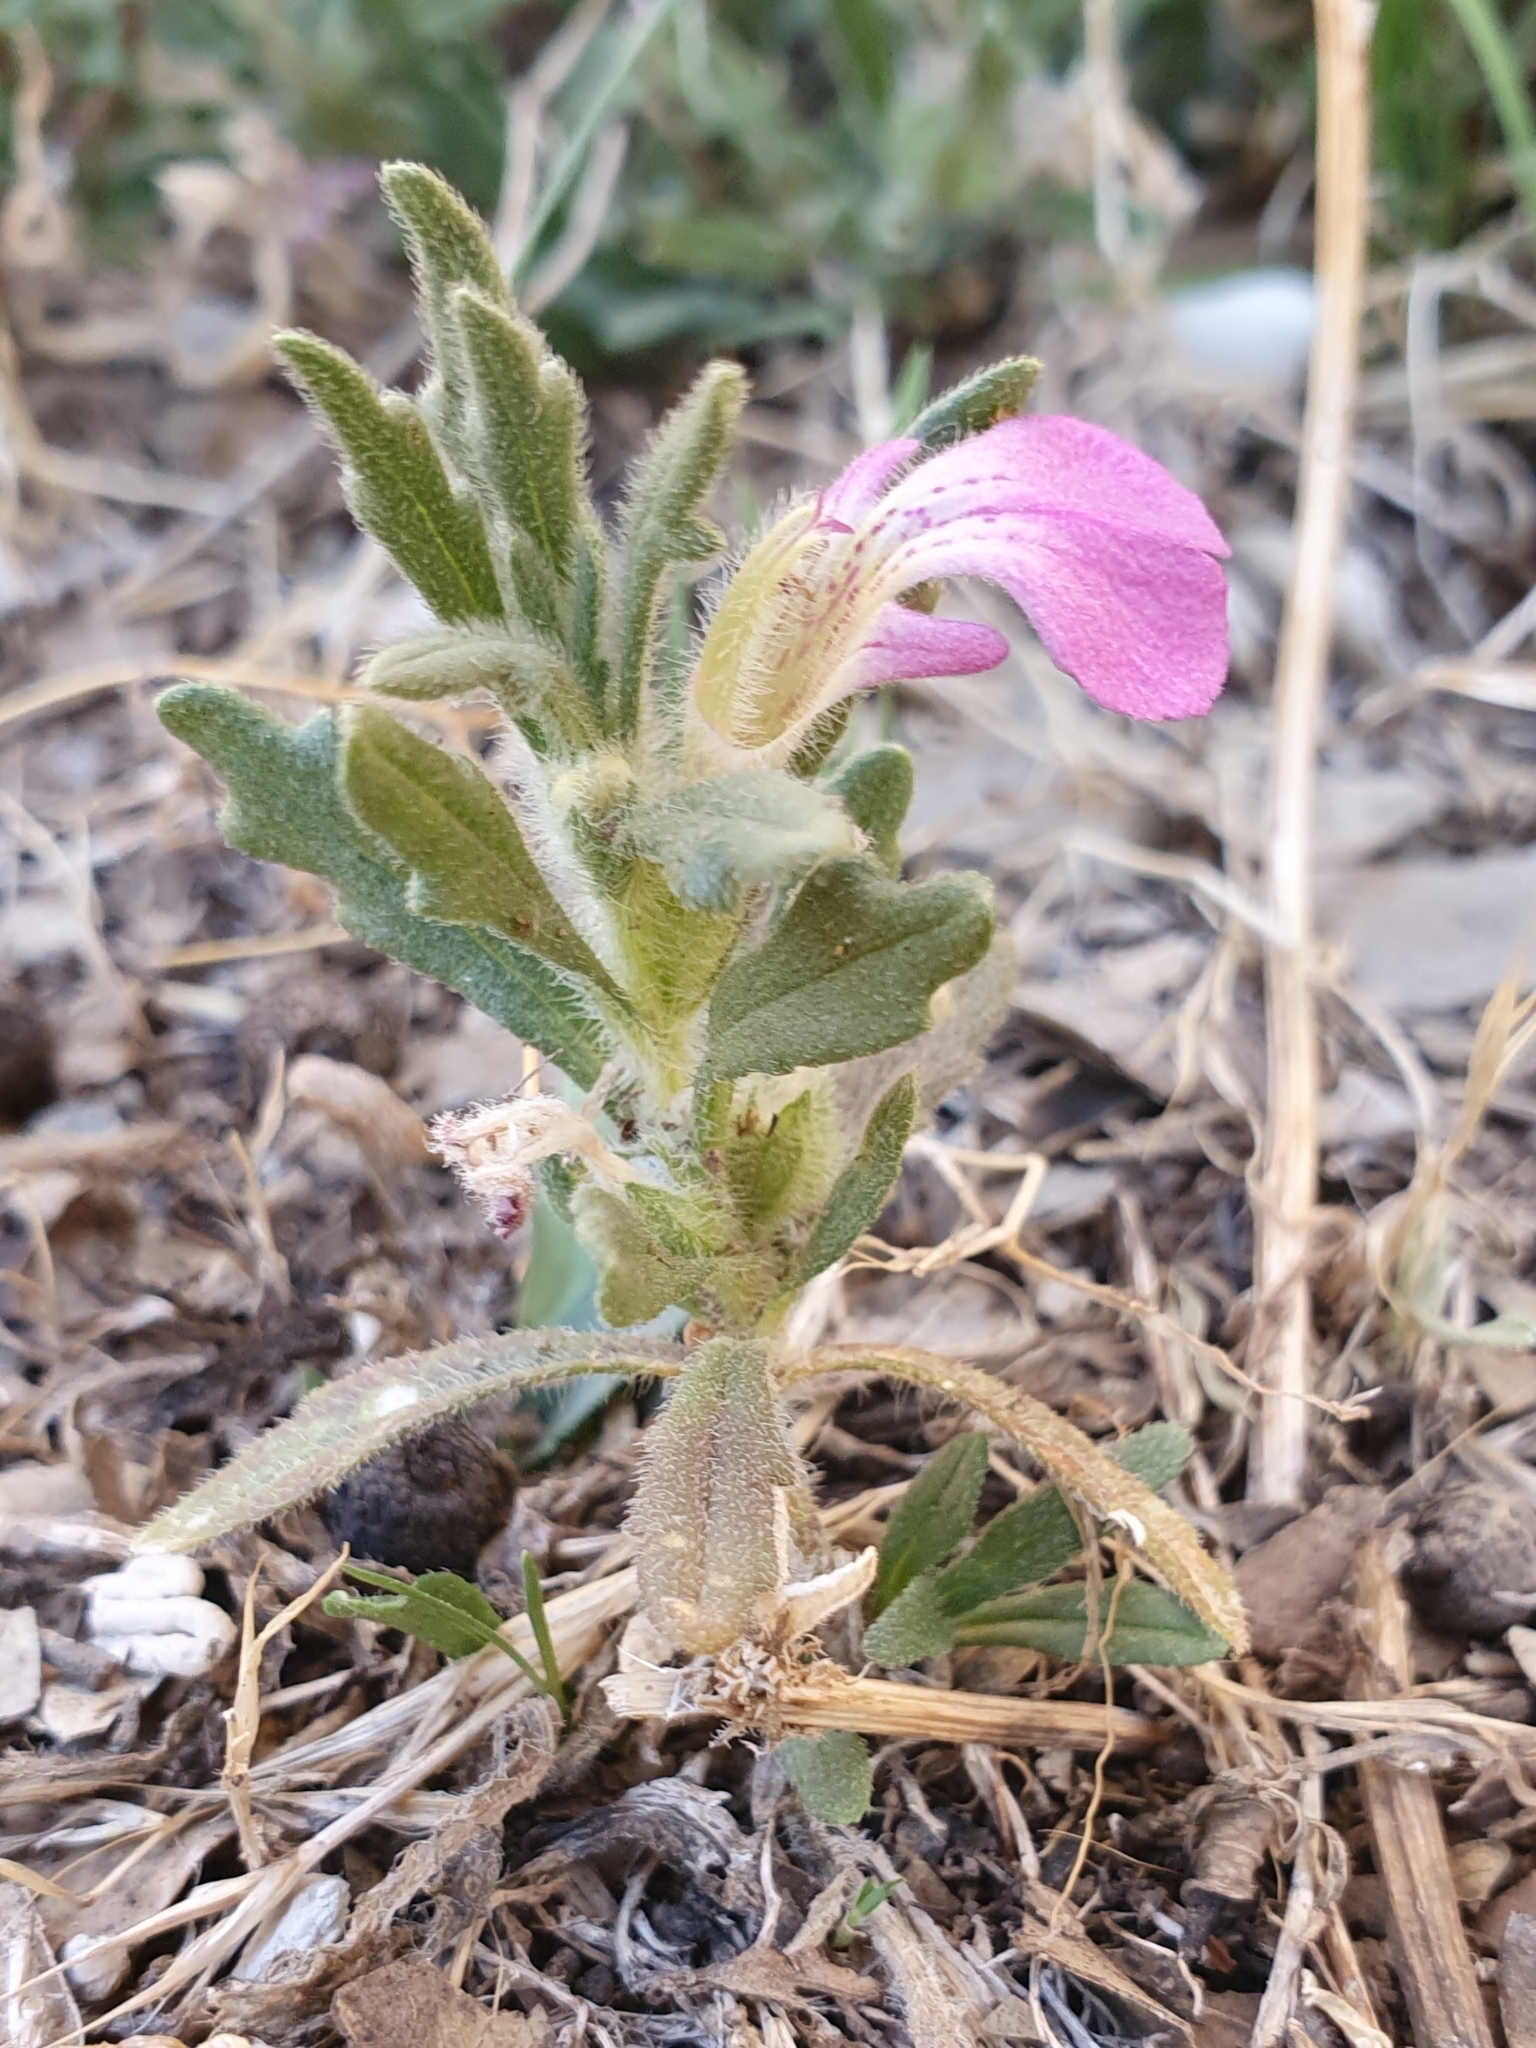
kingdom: Plantae
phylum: Tracheophyta
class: Magnoliopsida
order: Lamiales
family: Lamiaceae
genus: Ajuga
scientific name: Ajuga iva
